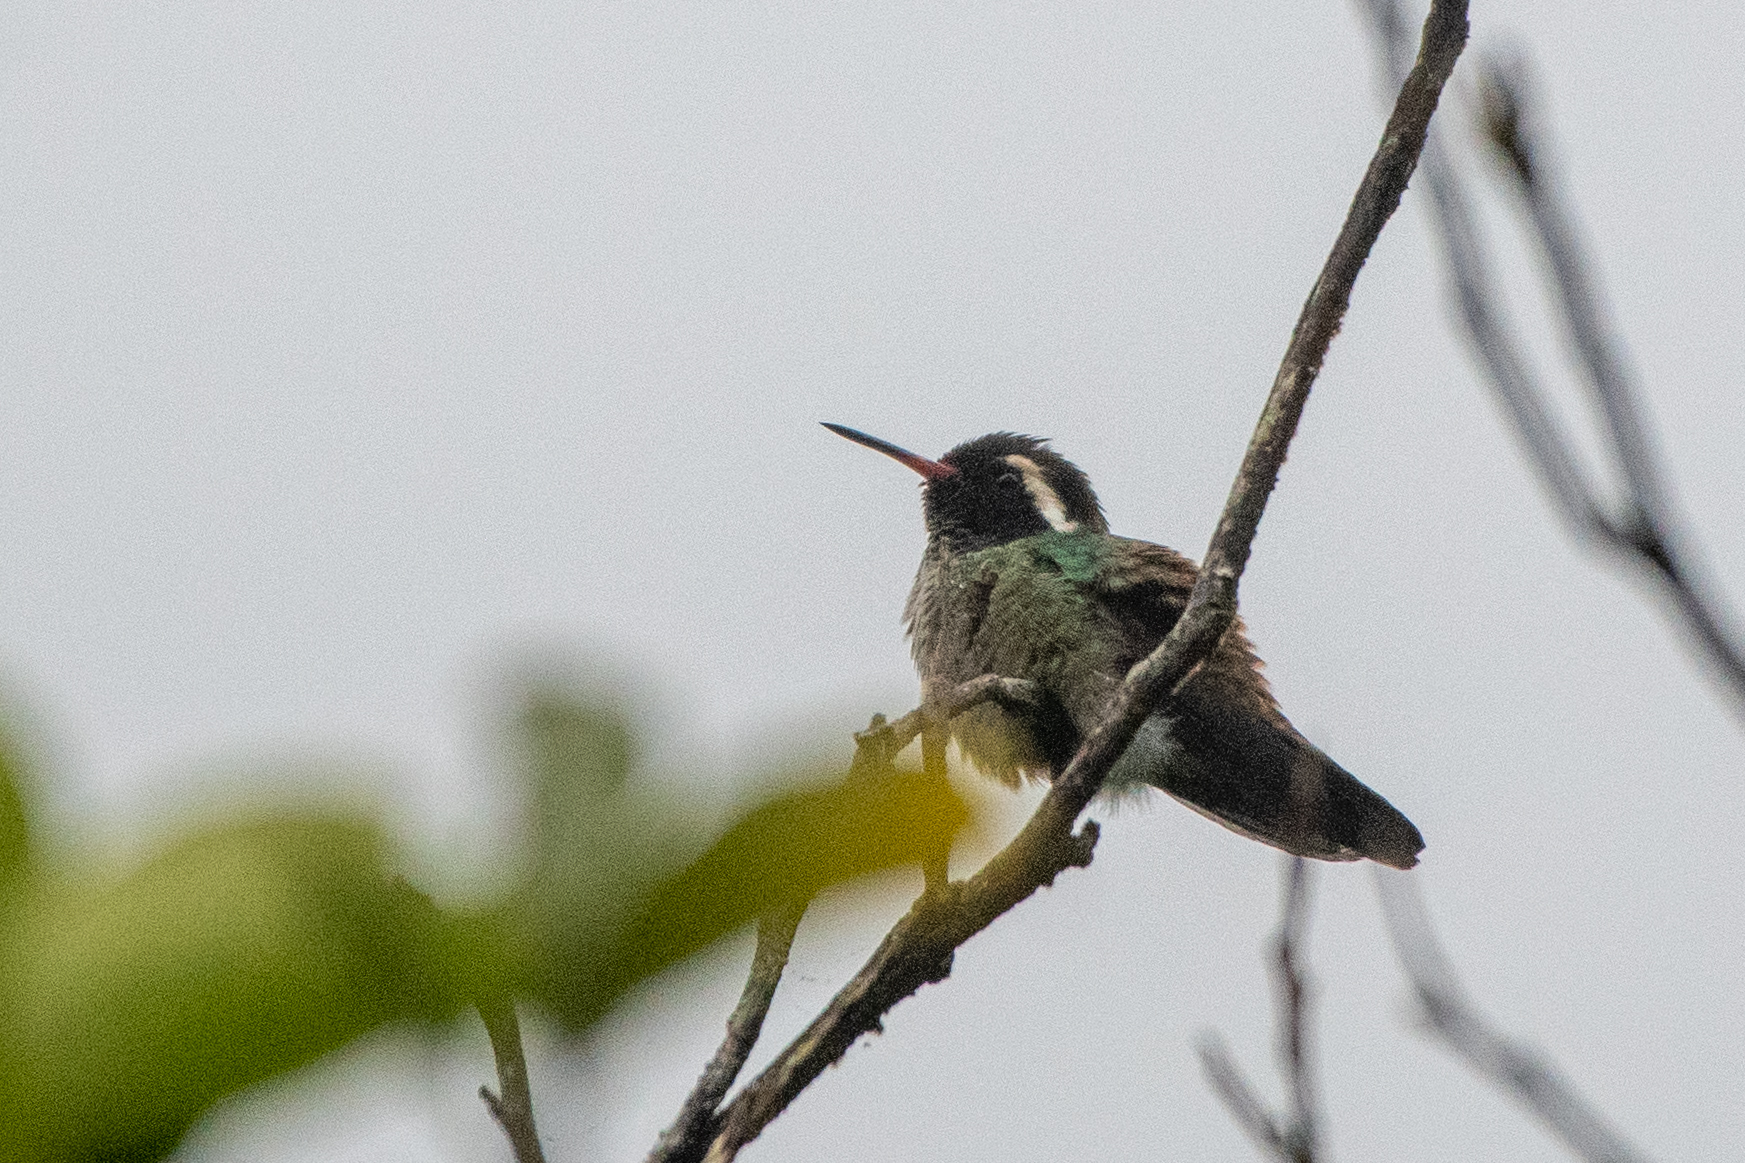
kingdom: Animalia
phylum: Chordata
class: Aves
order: Apodiformes
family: Trochilidae
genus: Basilinna
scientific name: Basilinna leucotis
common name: White-eared hummingbird
